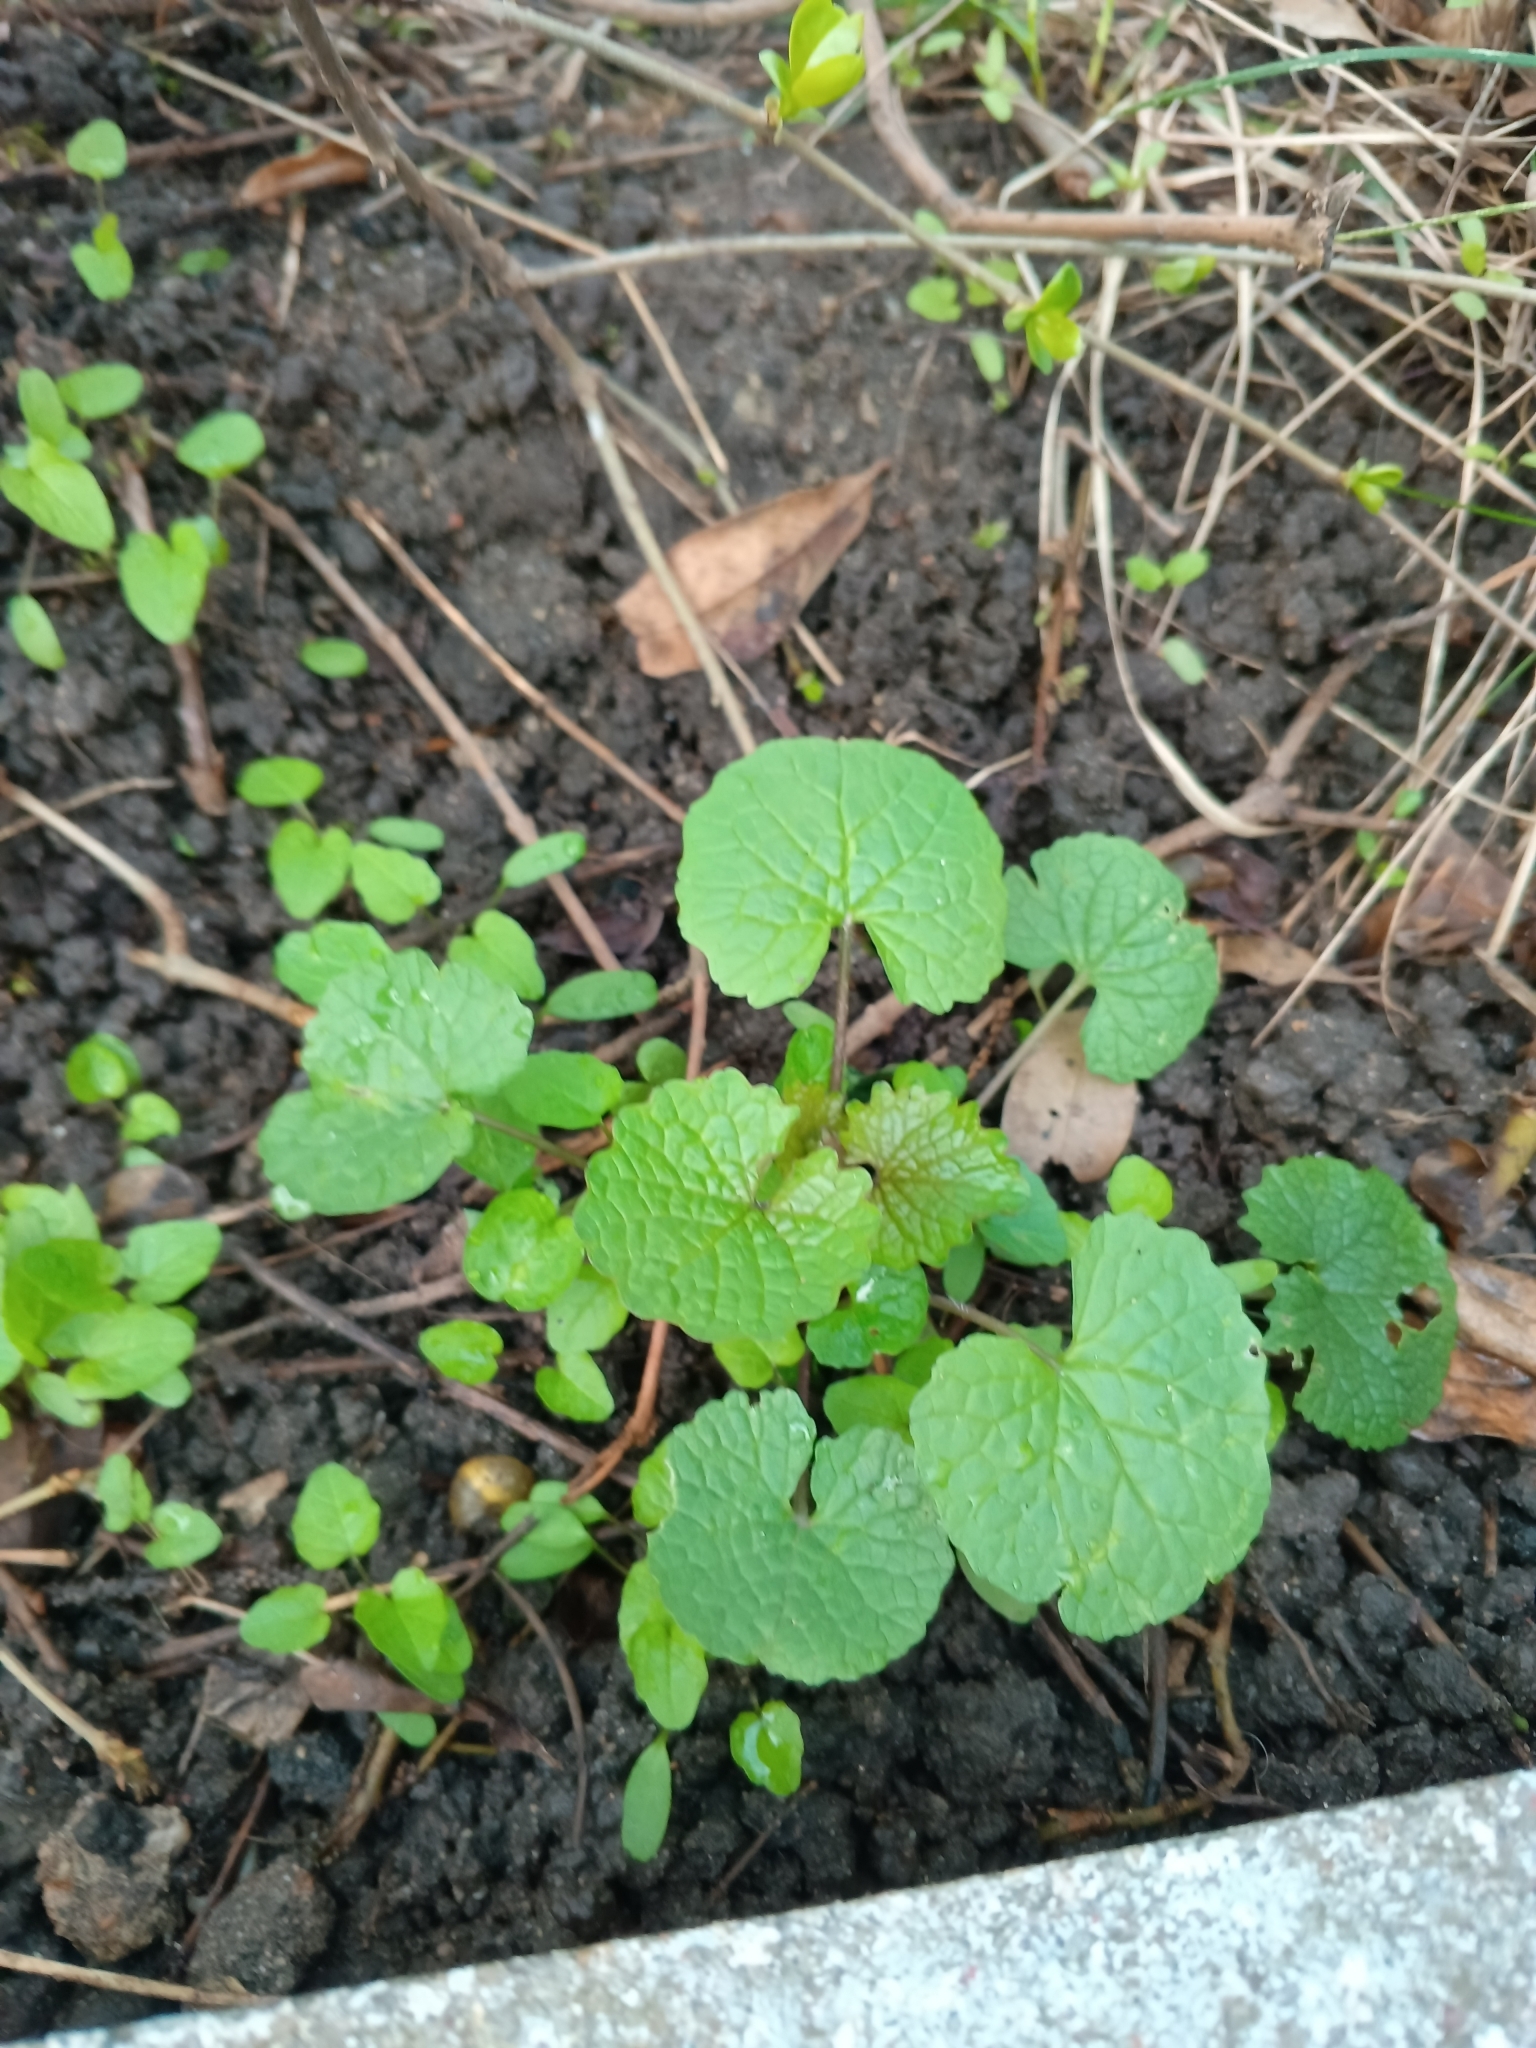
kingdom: Plantae
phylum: Tracheophyta
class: Magnoliopsida
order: Brassicales
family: Brassicaceae
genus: Alliaria
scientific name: Alliaria petiolata
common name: Garlic mustard
